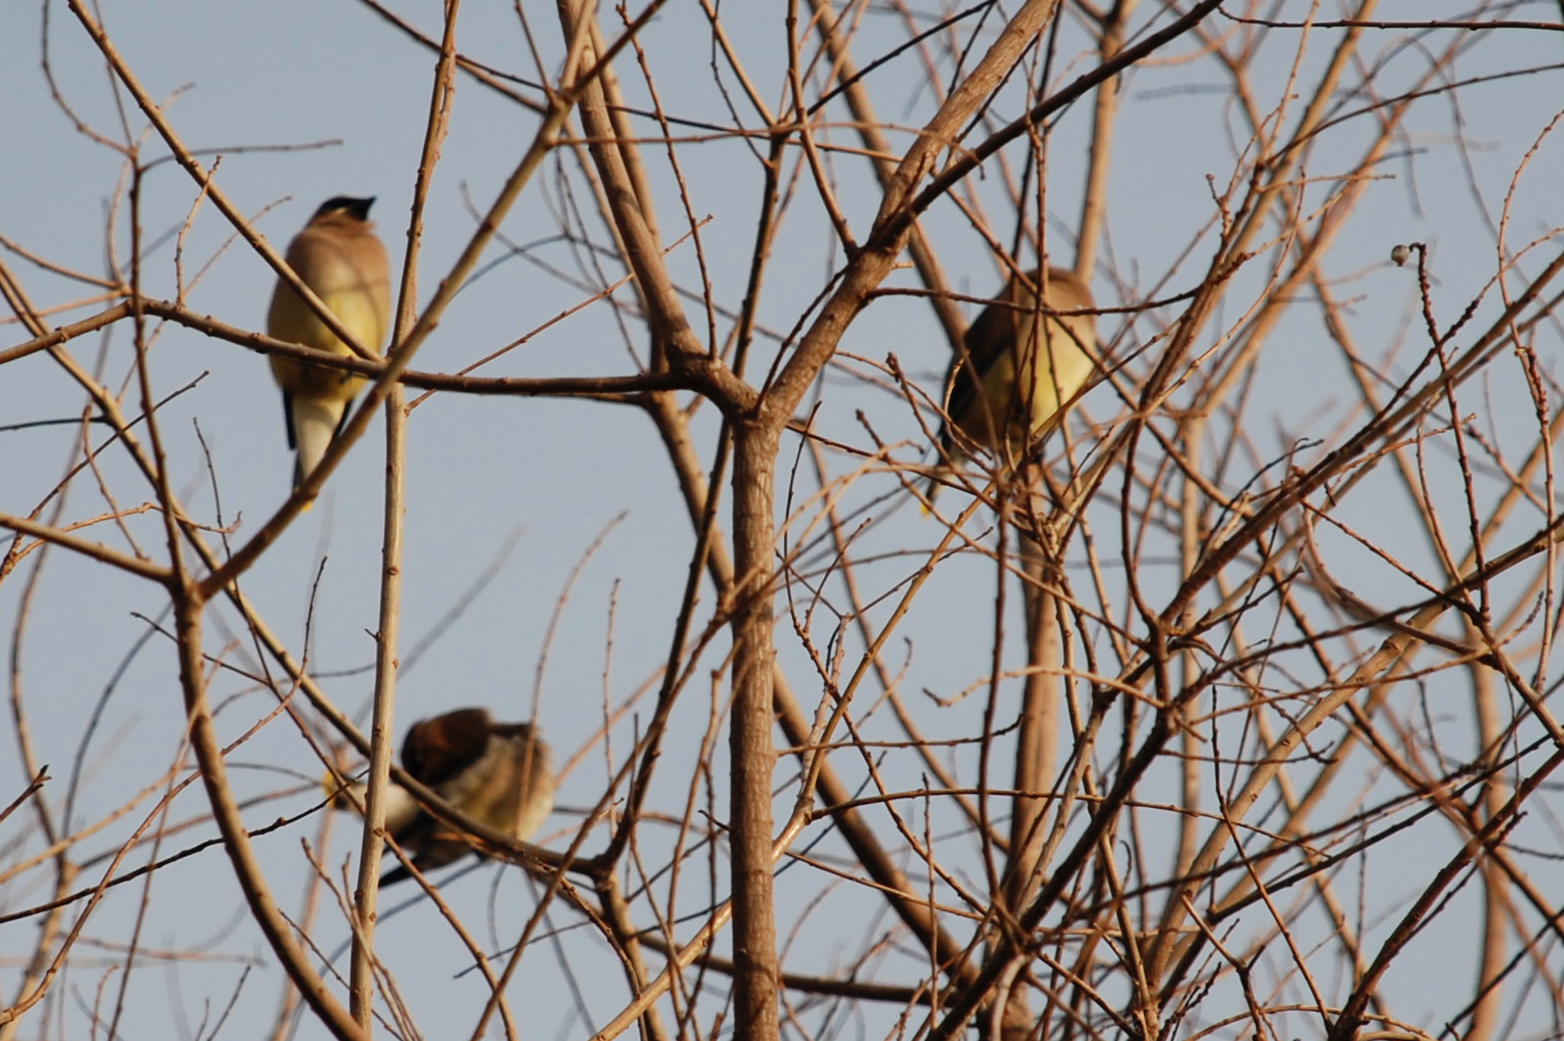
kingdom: Animalia
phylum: Chordata
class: Aves
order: Passeriformes
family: Bombycillidae
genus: Bombycilla
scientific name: Bombycilla cedrorum
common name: Cedar waxwing
